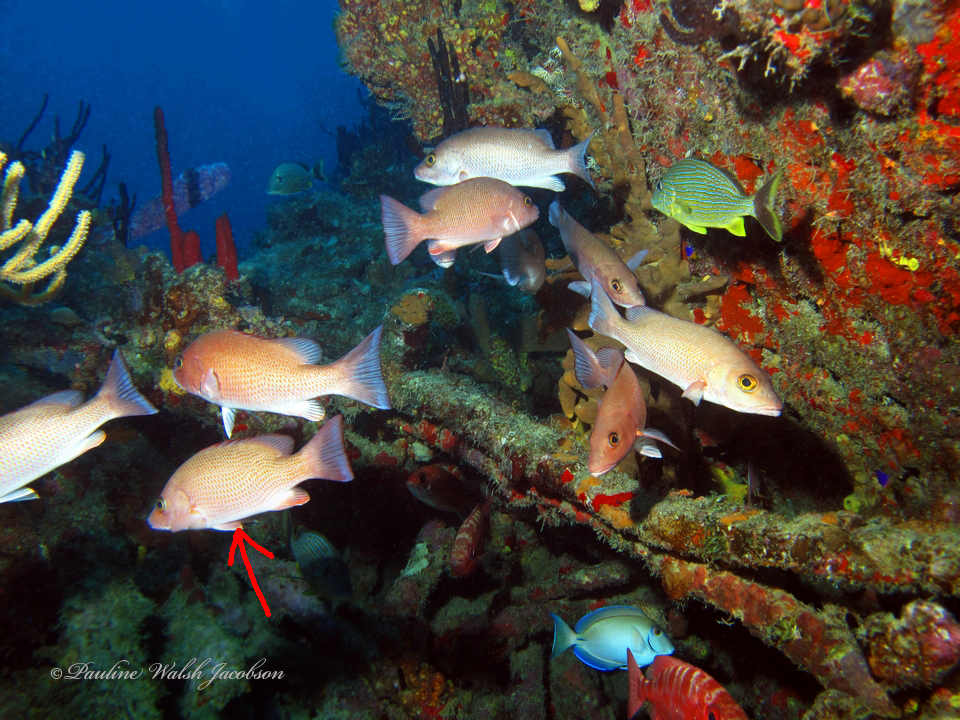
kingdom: Animalia
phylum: Chordata
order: Perciformes
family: Lutjanidae
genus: Lutjanus
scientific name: Lutjanus griseus
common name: Gray snapper
